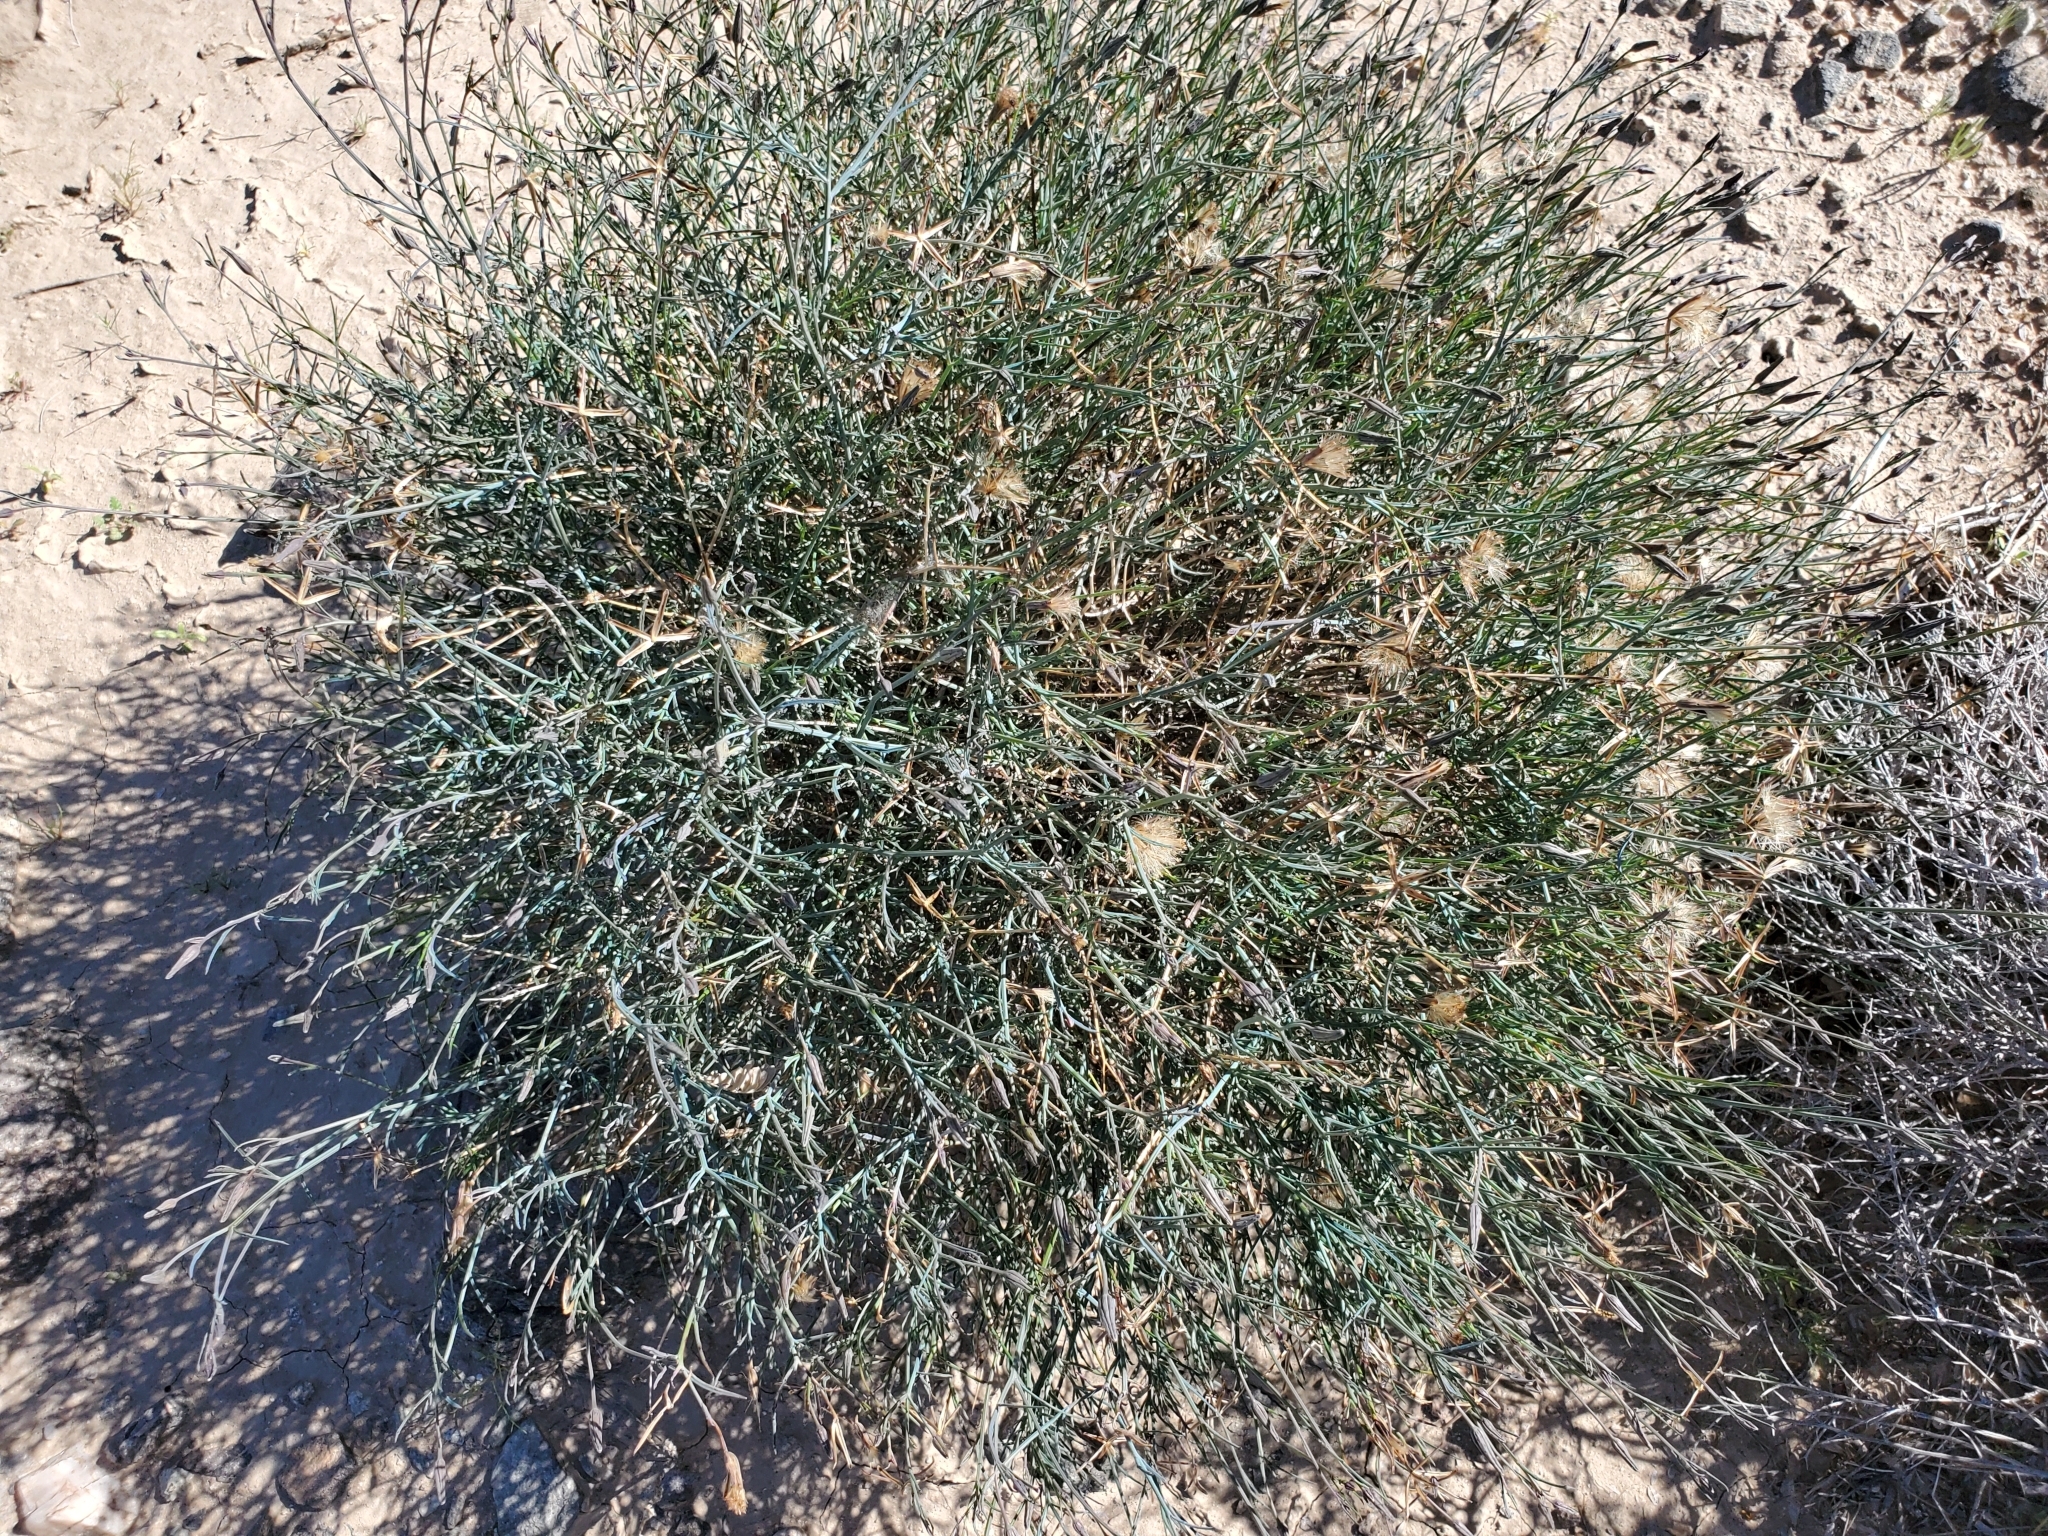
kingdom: Plantae
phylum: Tracheophyta
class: Magnoliopsida
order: Asterales
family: Asteraceae
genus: Porophyllum
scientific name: Porophyllum gracile
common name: Odora
